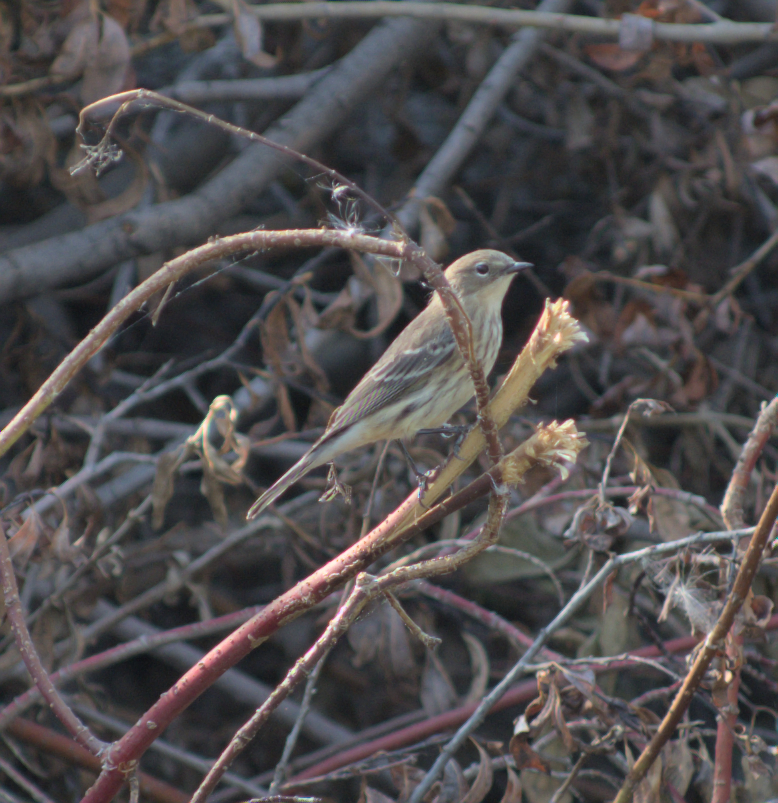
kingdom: Animalia
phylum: Chordata
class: Aves
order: Passeriformes
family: Parulidae
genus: Setophaga
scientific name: Setophaga coronata
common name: Myrtle warbler
